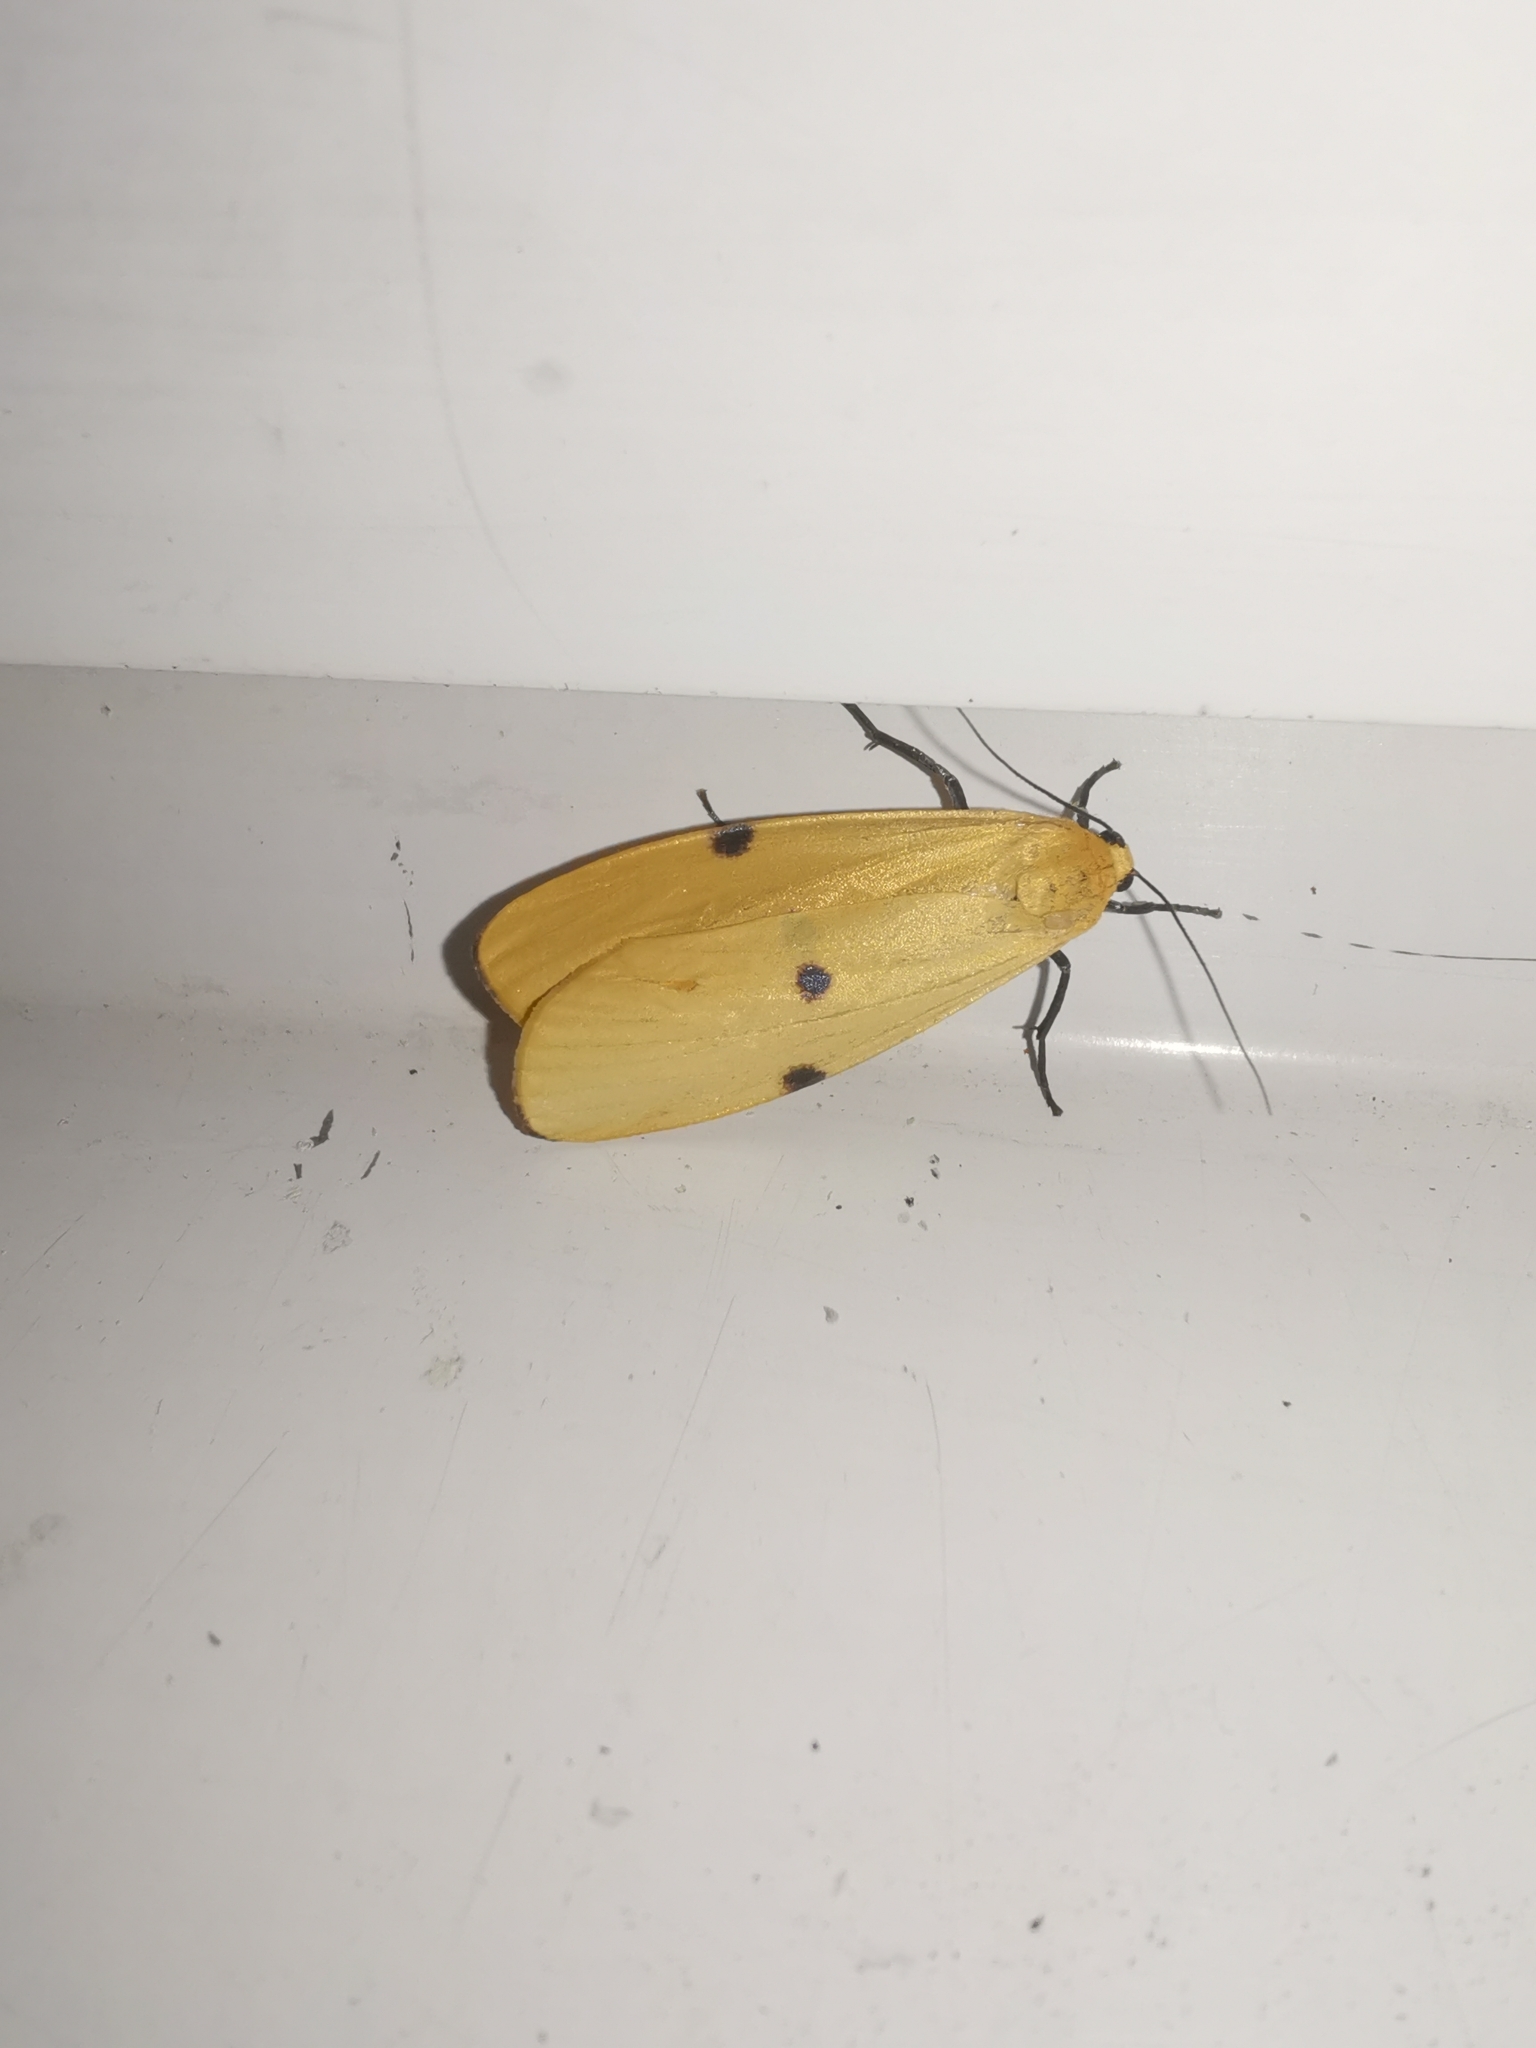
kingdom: Animalia
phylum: Arthropoda
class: Insecta
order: Lepidoptera
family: Erebidae
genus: Lithosia
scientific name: Lithosia quadra
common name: Four-spotted footman
